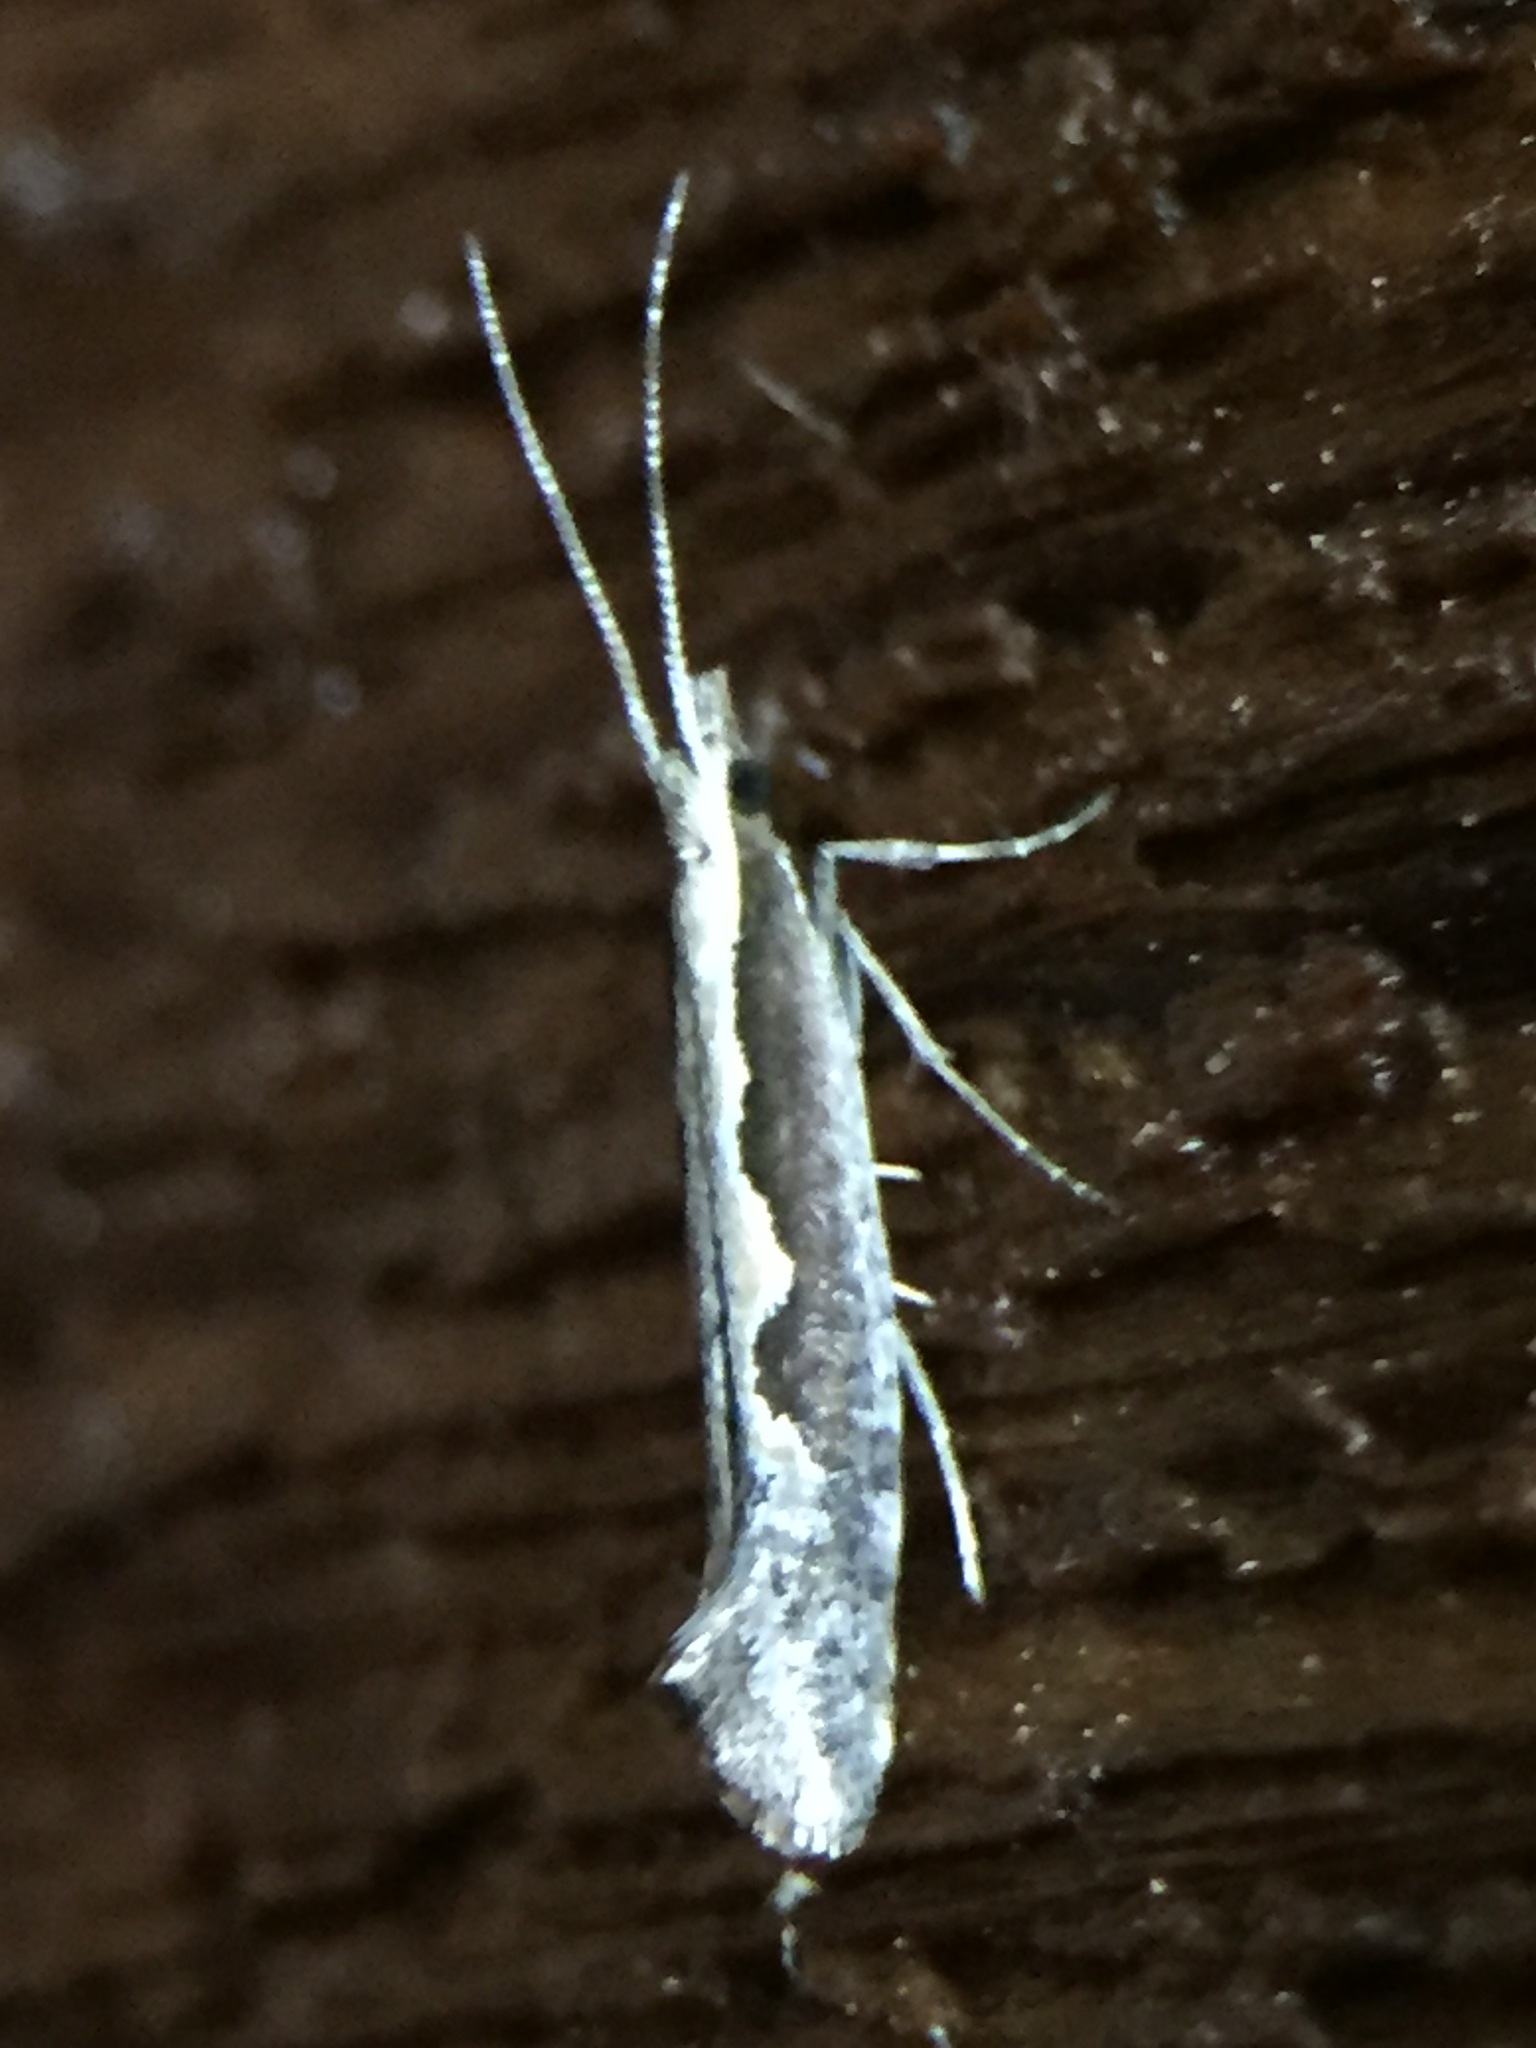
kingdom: Animalia
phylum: Arthropoda
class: Insecta
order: Lepidoptera
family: Plutellidae
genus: Plutella
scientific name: Plutella xylostella
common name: Diamond-back moth
